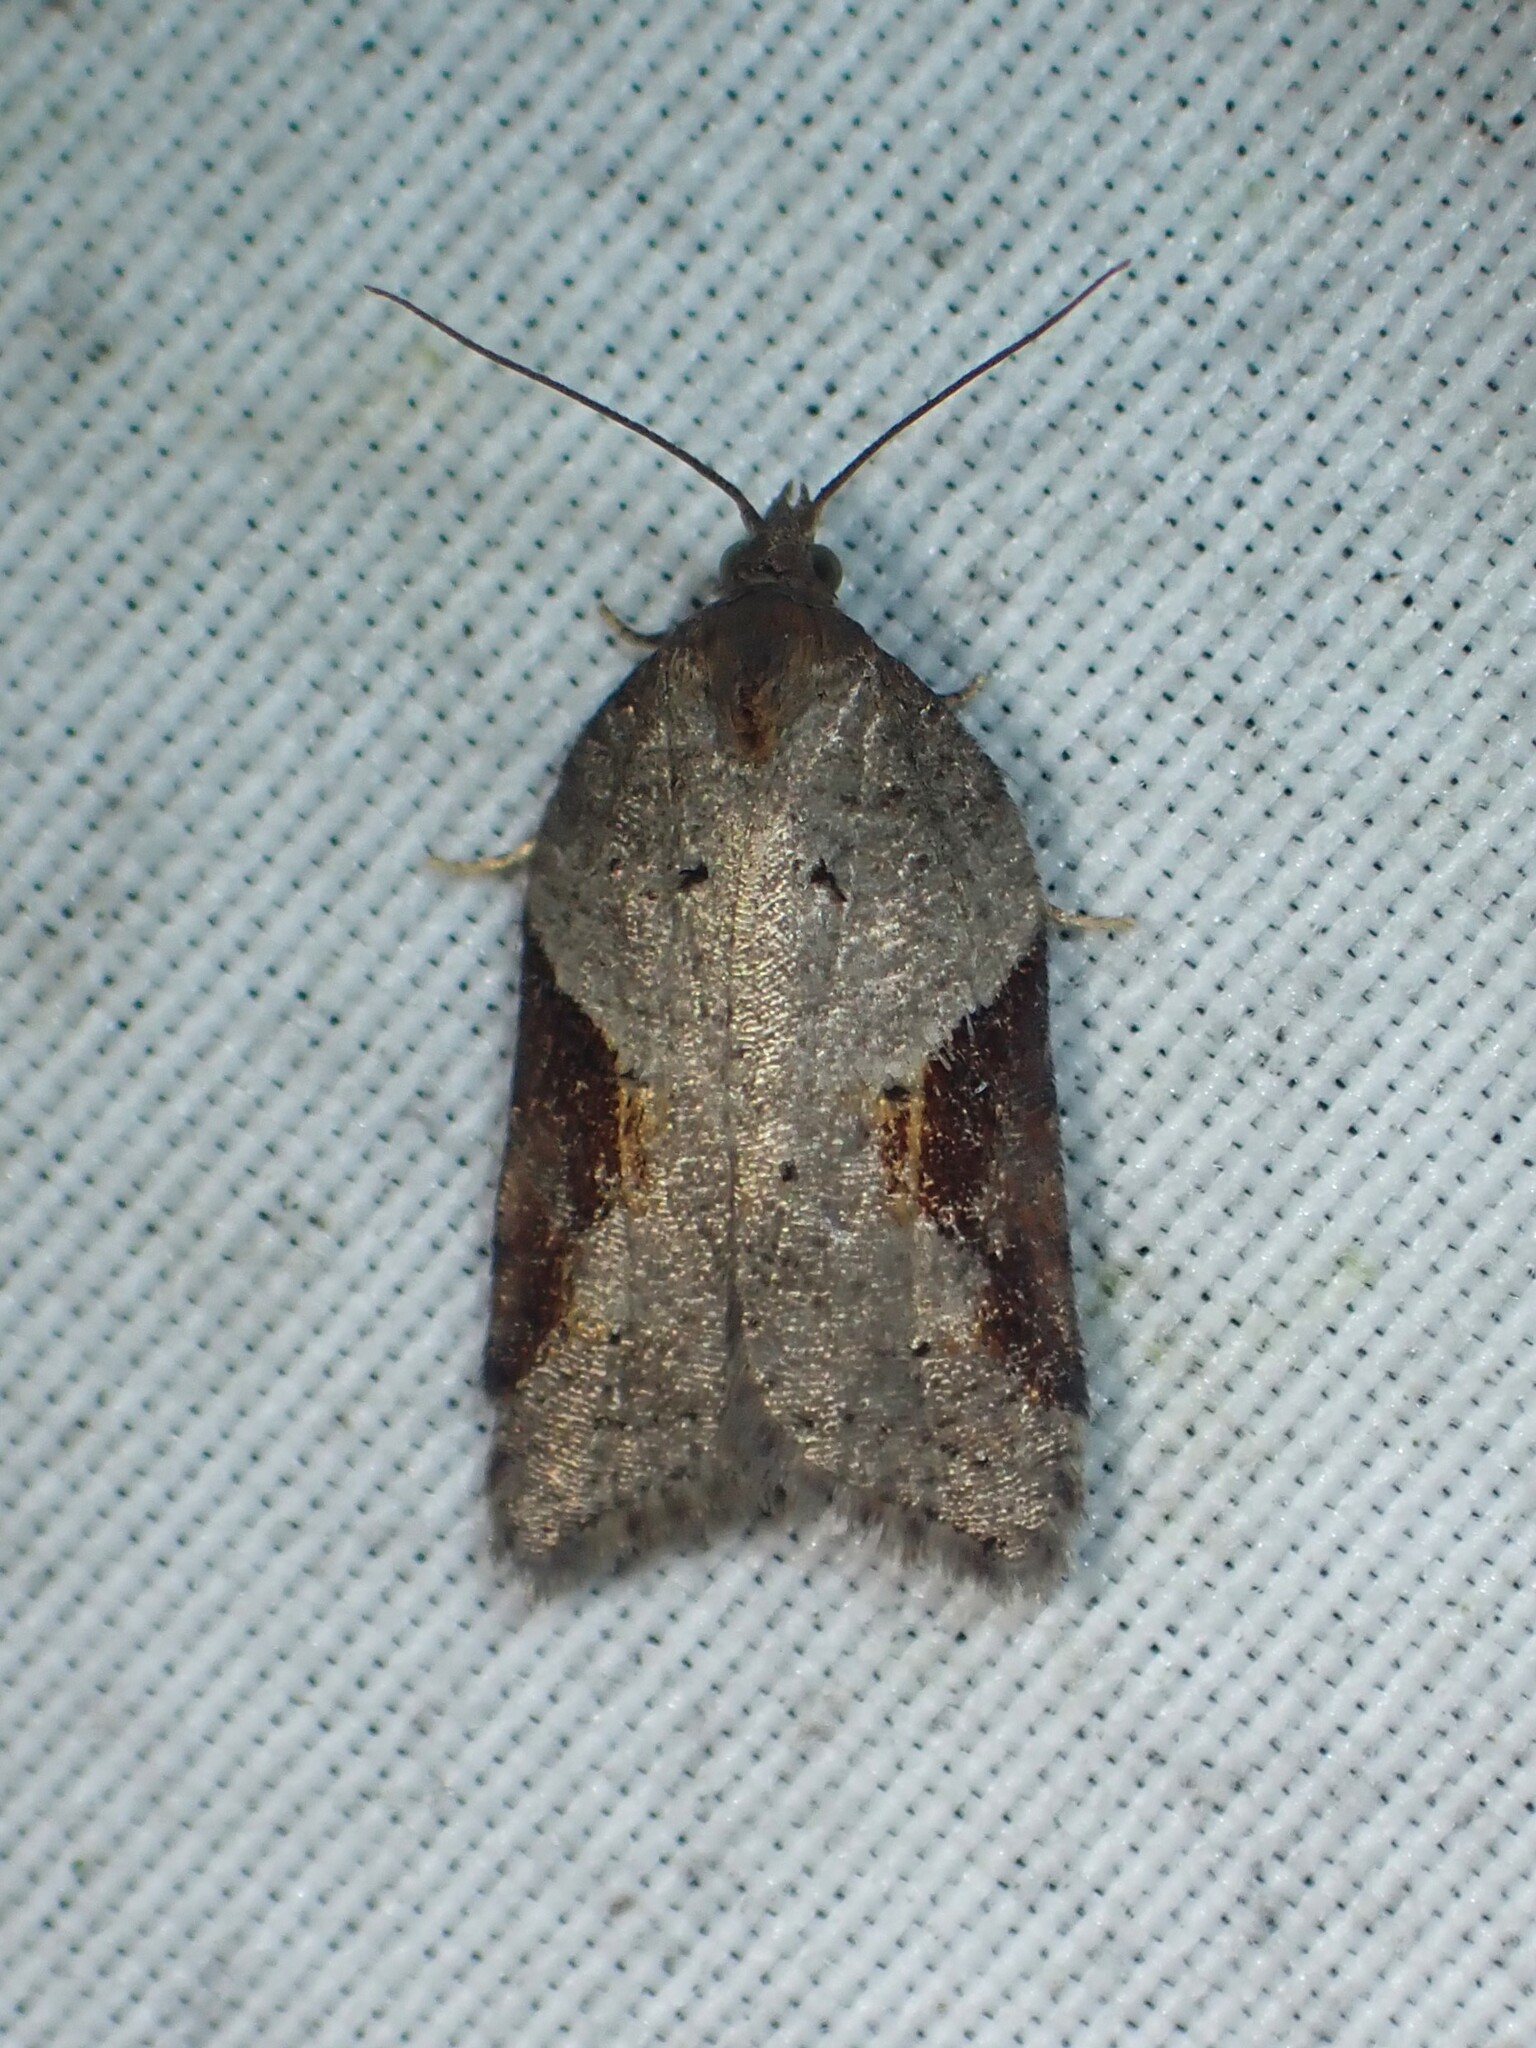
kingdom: Animalia
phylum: Arthropoda
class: Insecta
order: Lepidoptera
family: Tortricidae
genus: Acleris
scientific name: Acleris macdunnoughi
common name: Macdunnough's acleris
